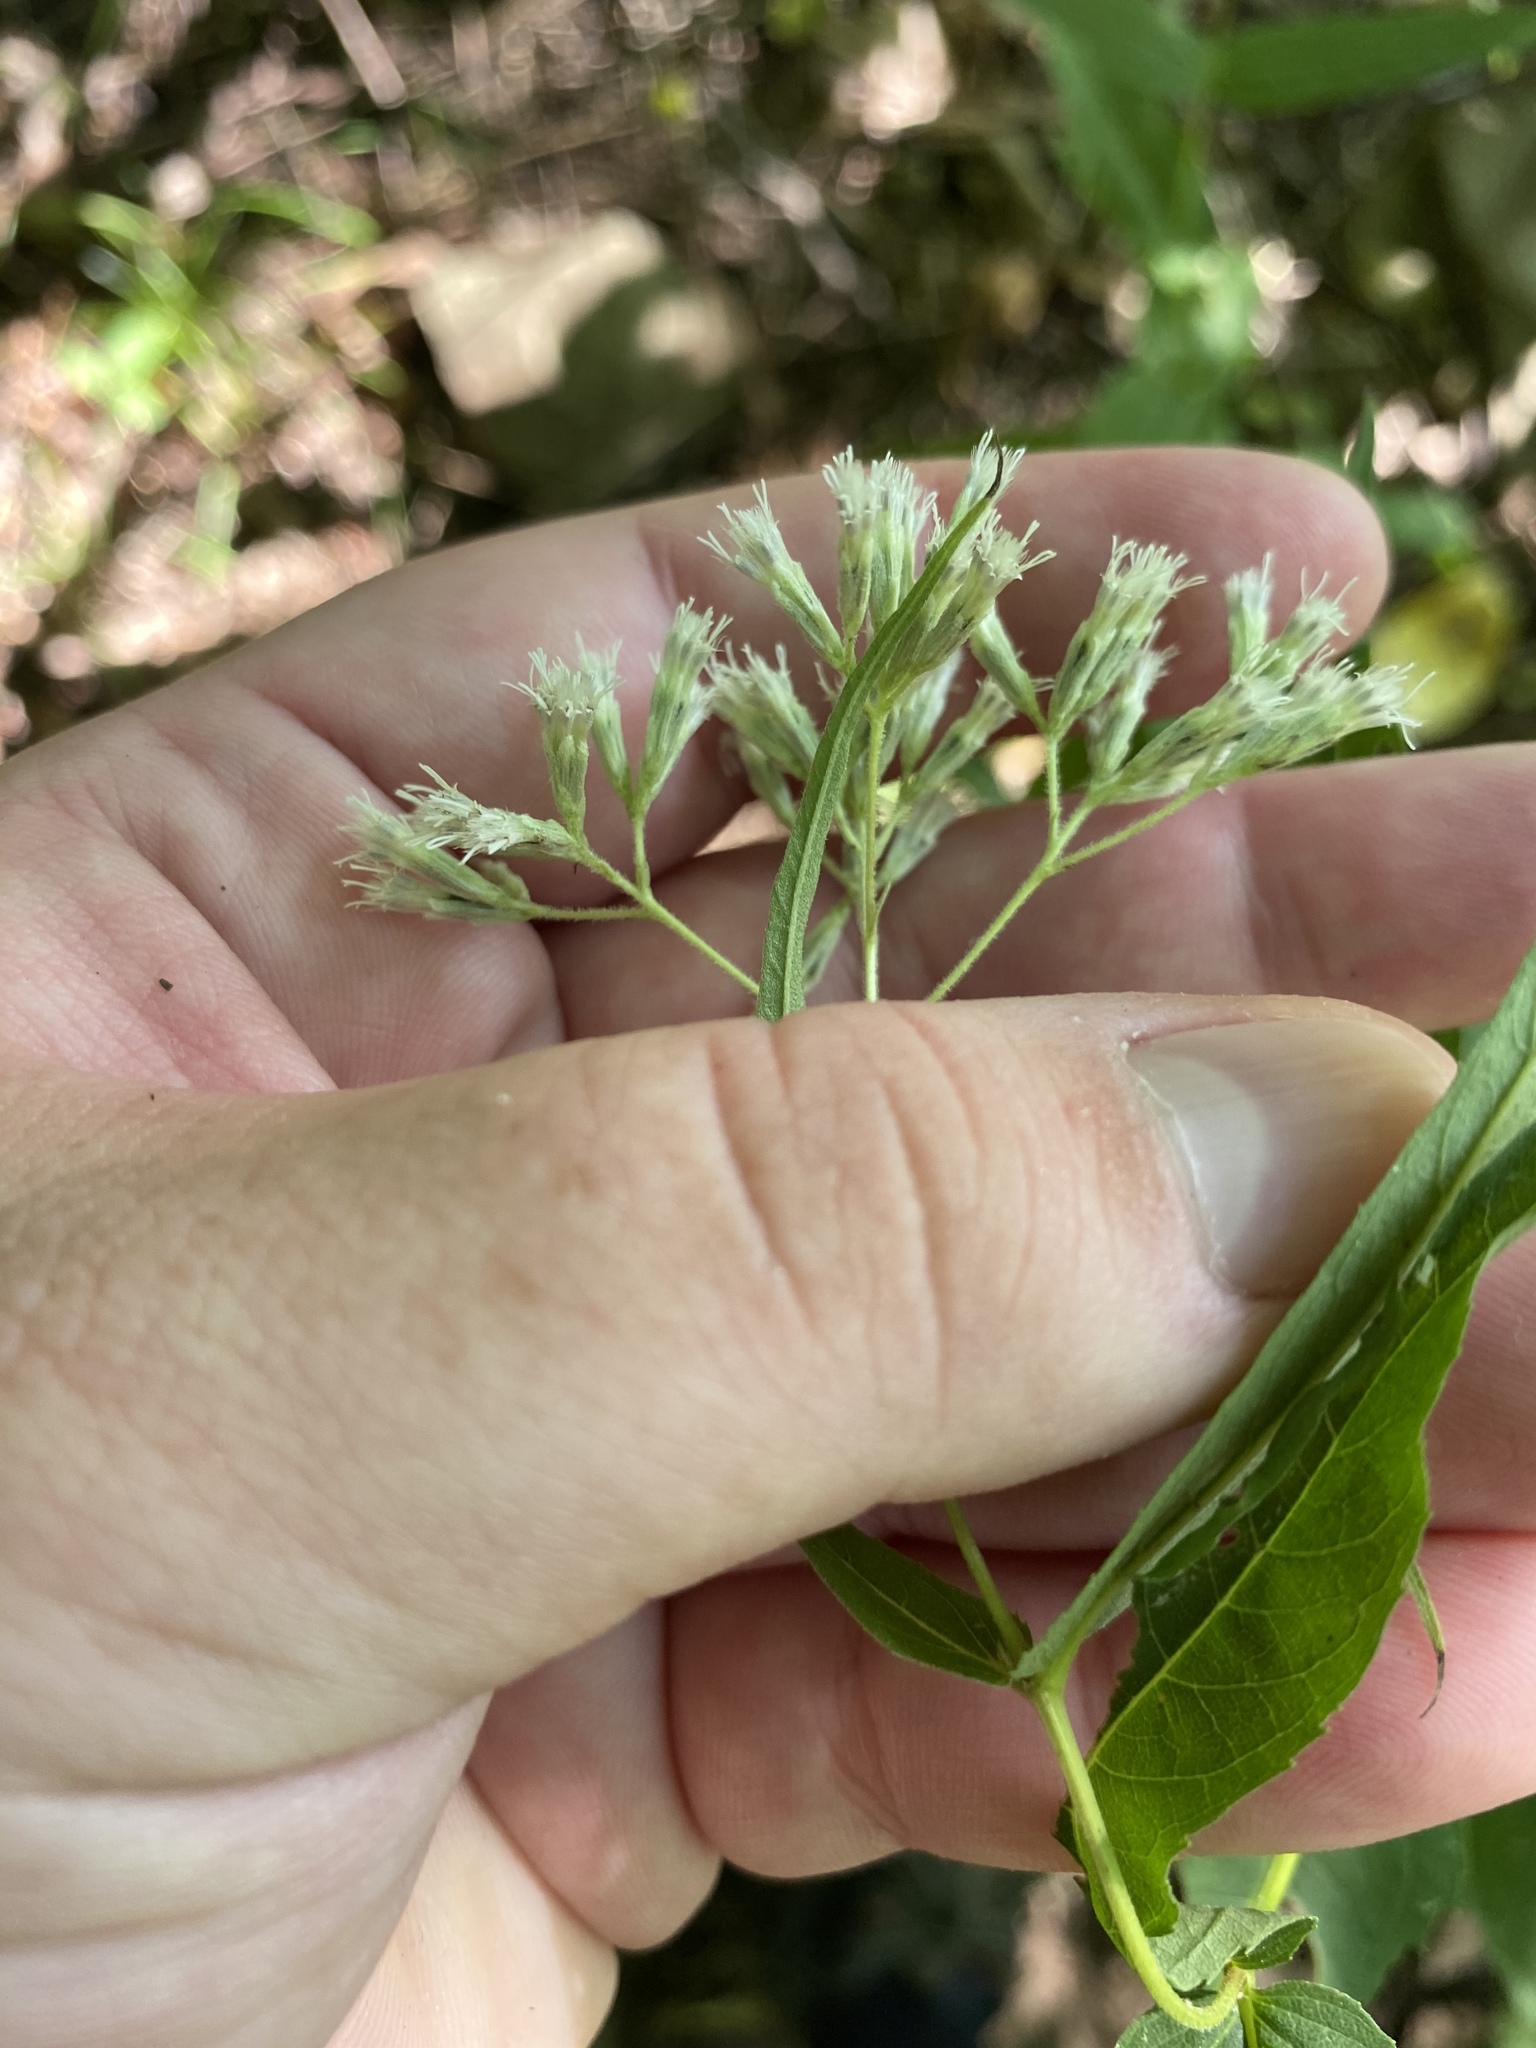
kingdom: Plantae
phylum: Tracheophyta
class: Magnoliopsida
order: Asterales
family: Asteraceae
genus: Eupatorium
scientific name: Eupatorium sessilifolium
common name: Upland boneset
